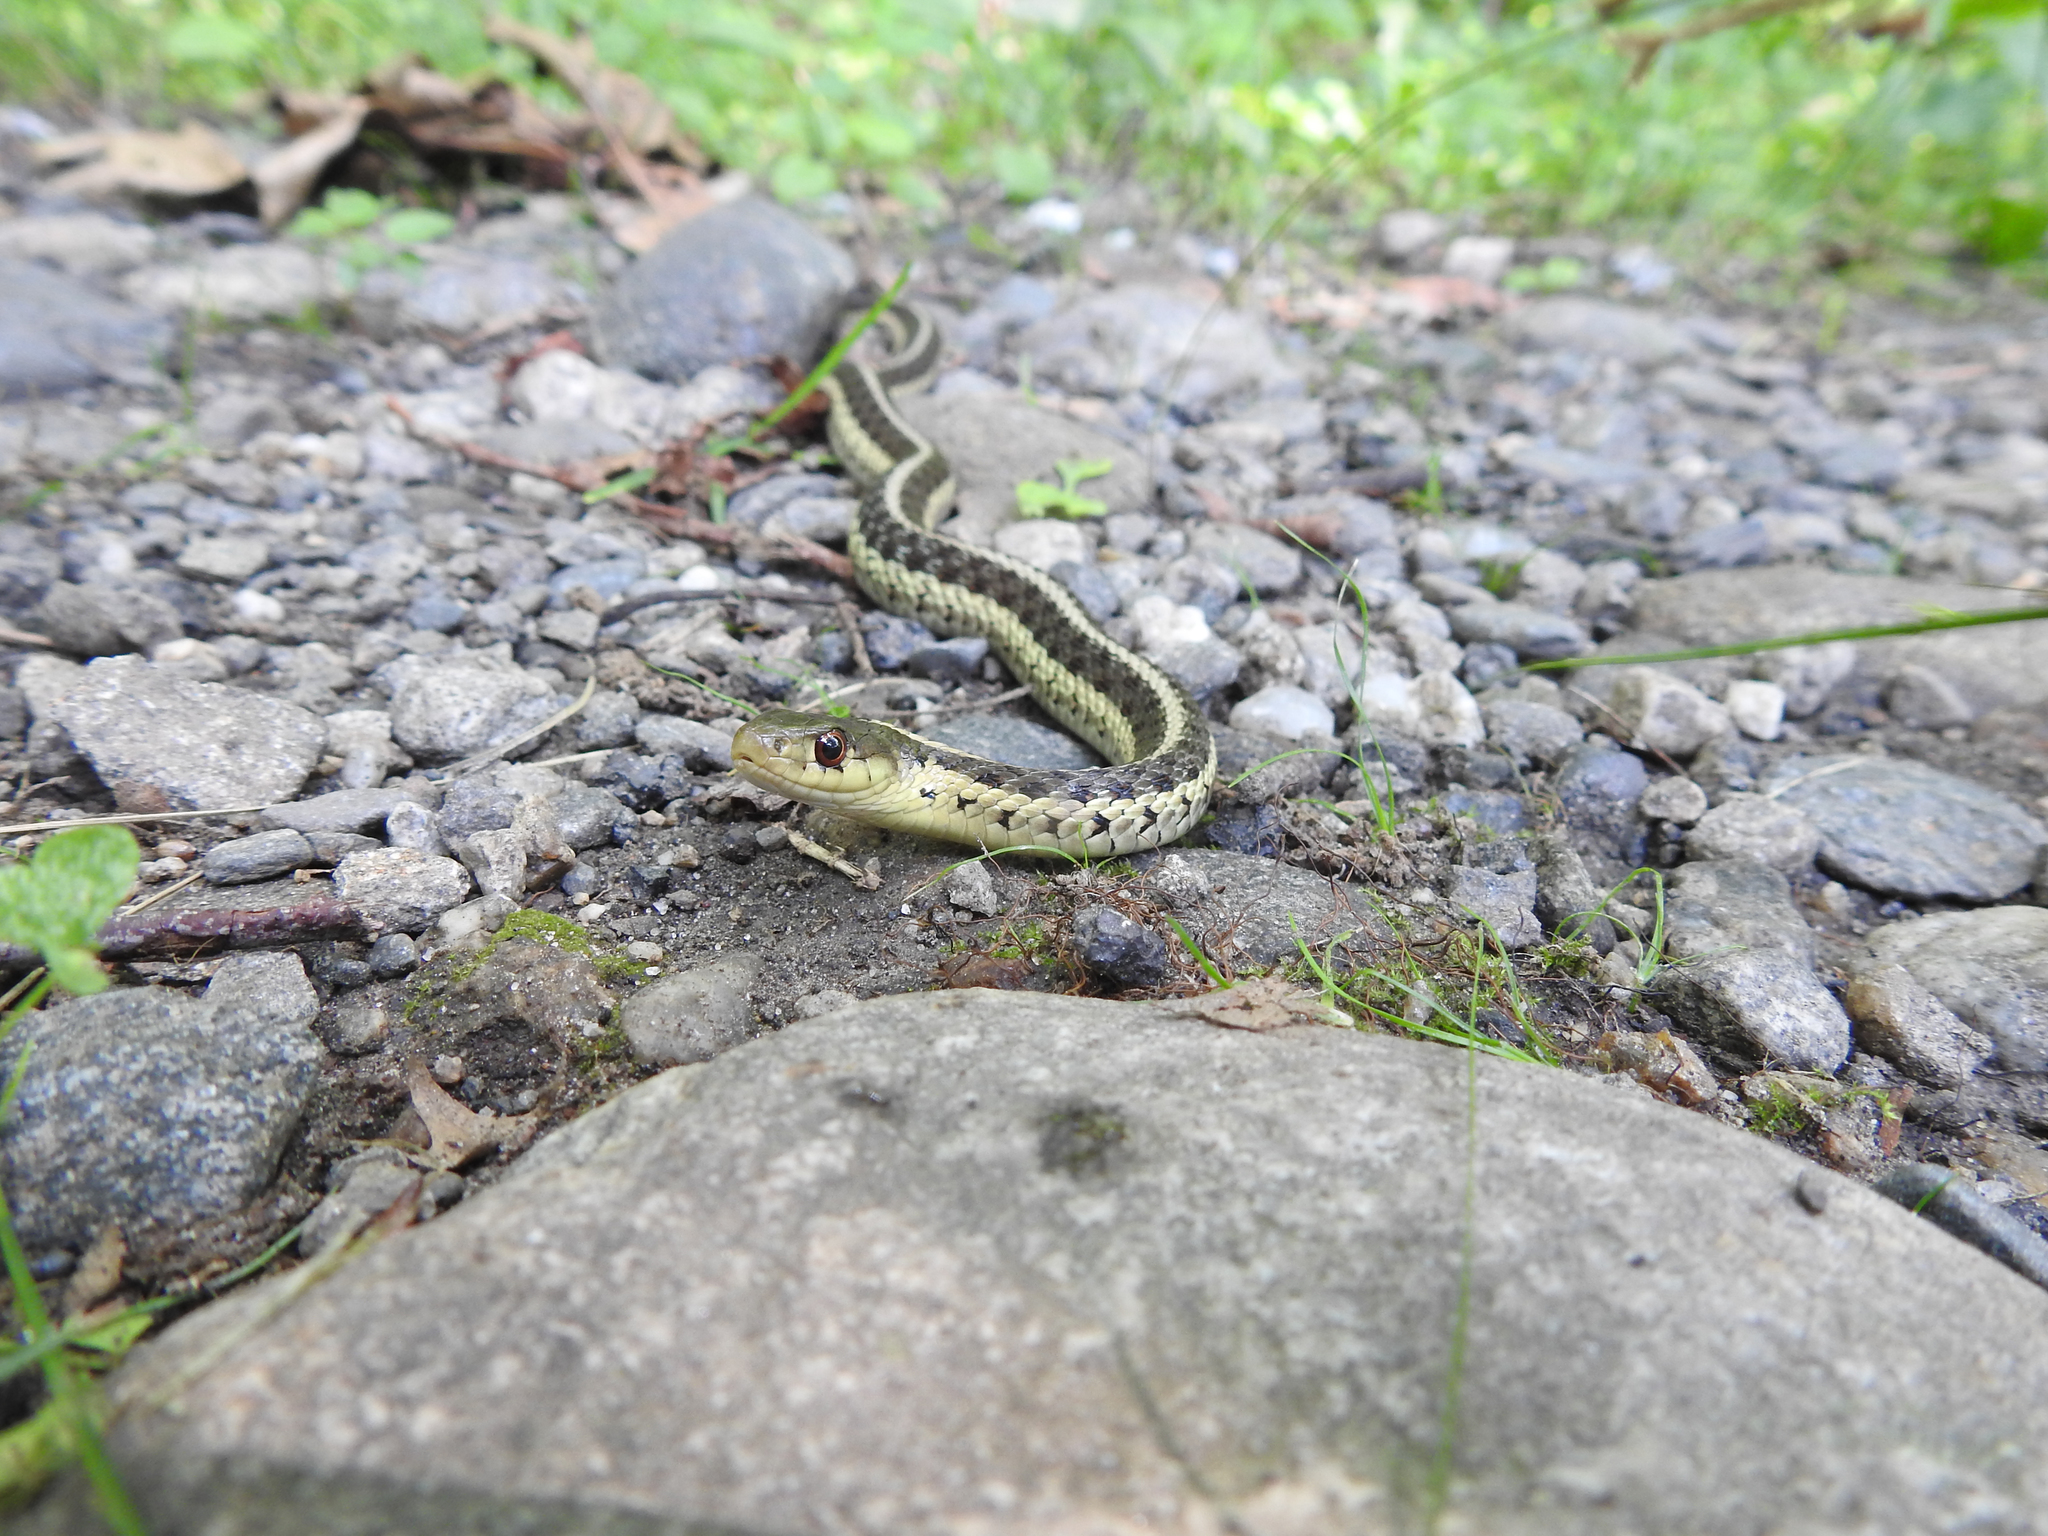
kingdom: Animalia
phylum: Chordata
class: Squamata
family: Colubridae
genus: Thamnophis
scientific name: Thamnophis sirtalis
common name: Common garter snake
